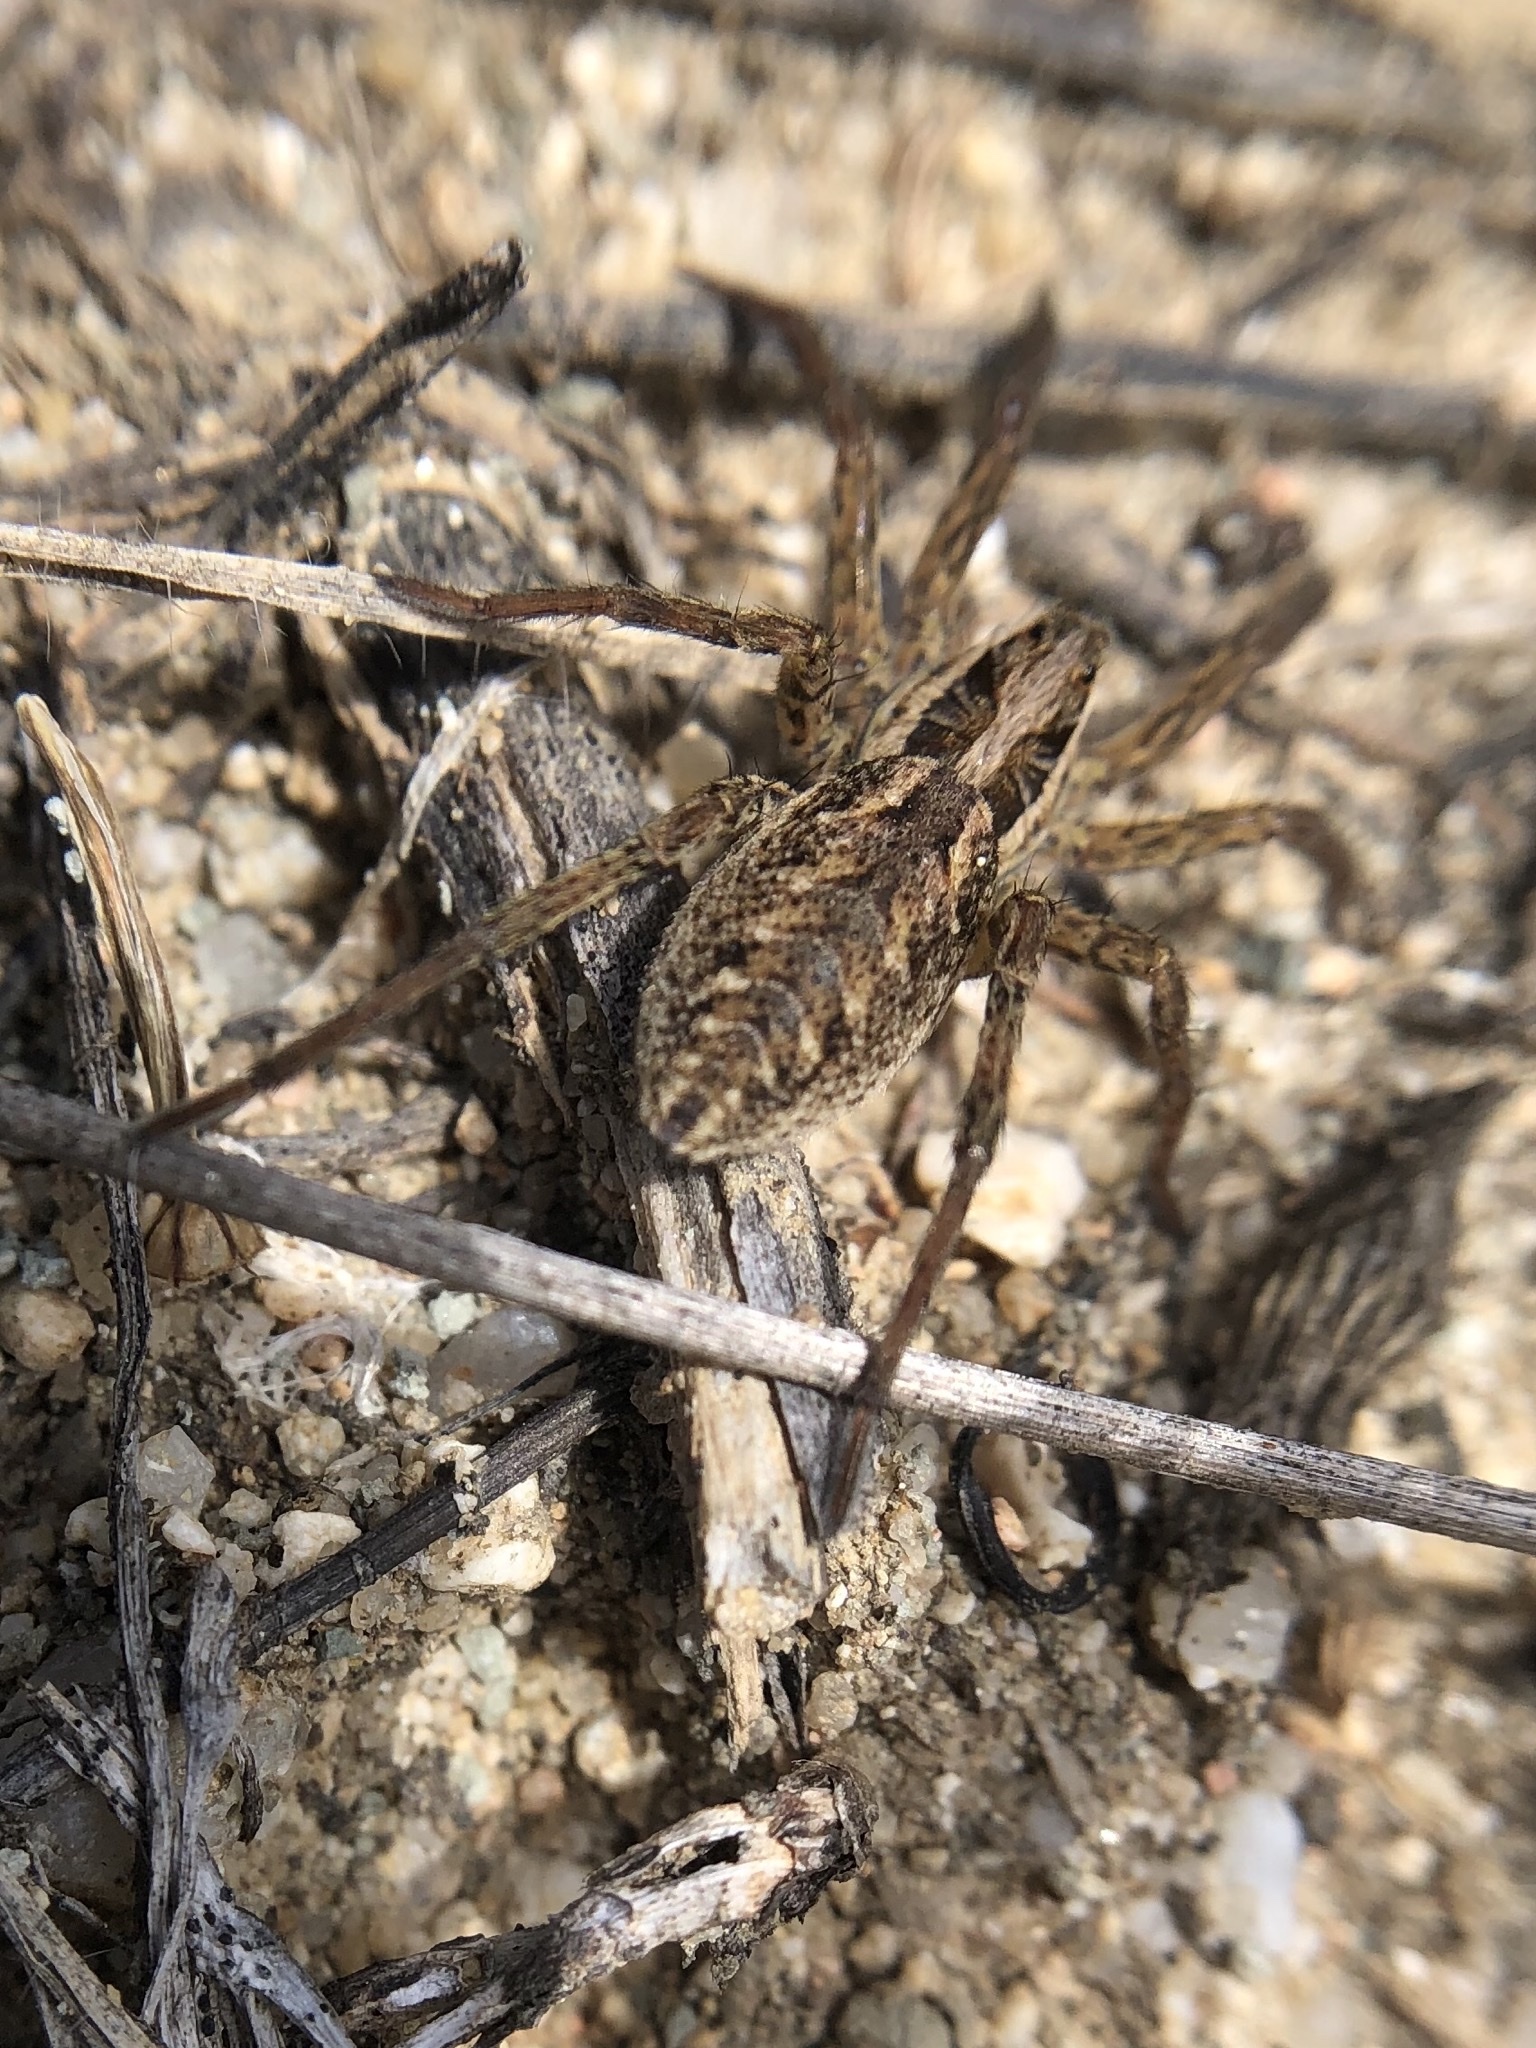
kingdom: Animalia
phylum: Arthropoda
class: Arachnida
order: Araneae
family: Lycosidae
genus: Hogna
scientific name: Hogna radiata
